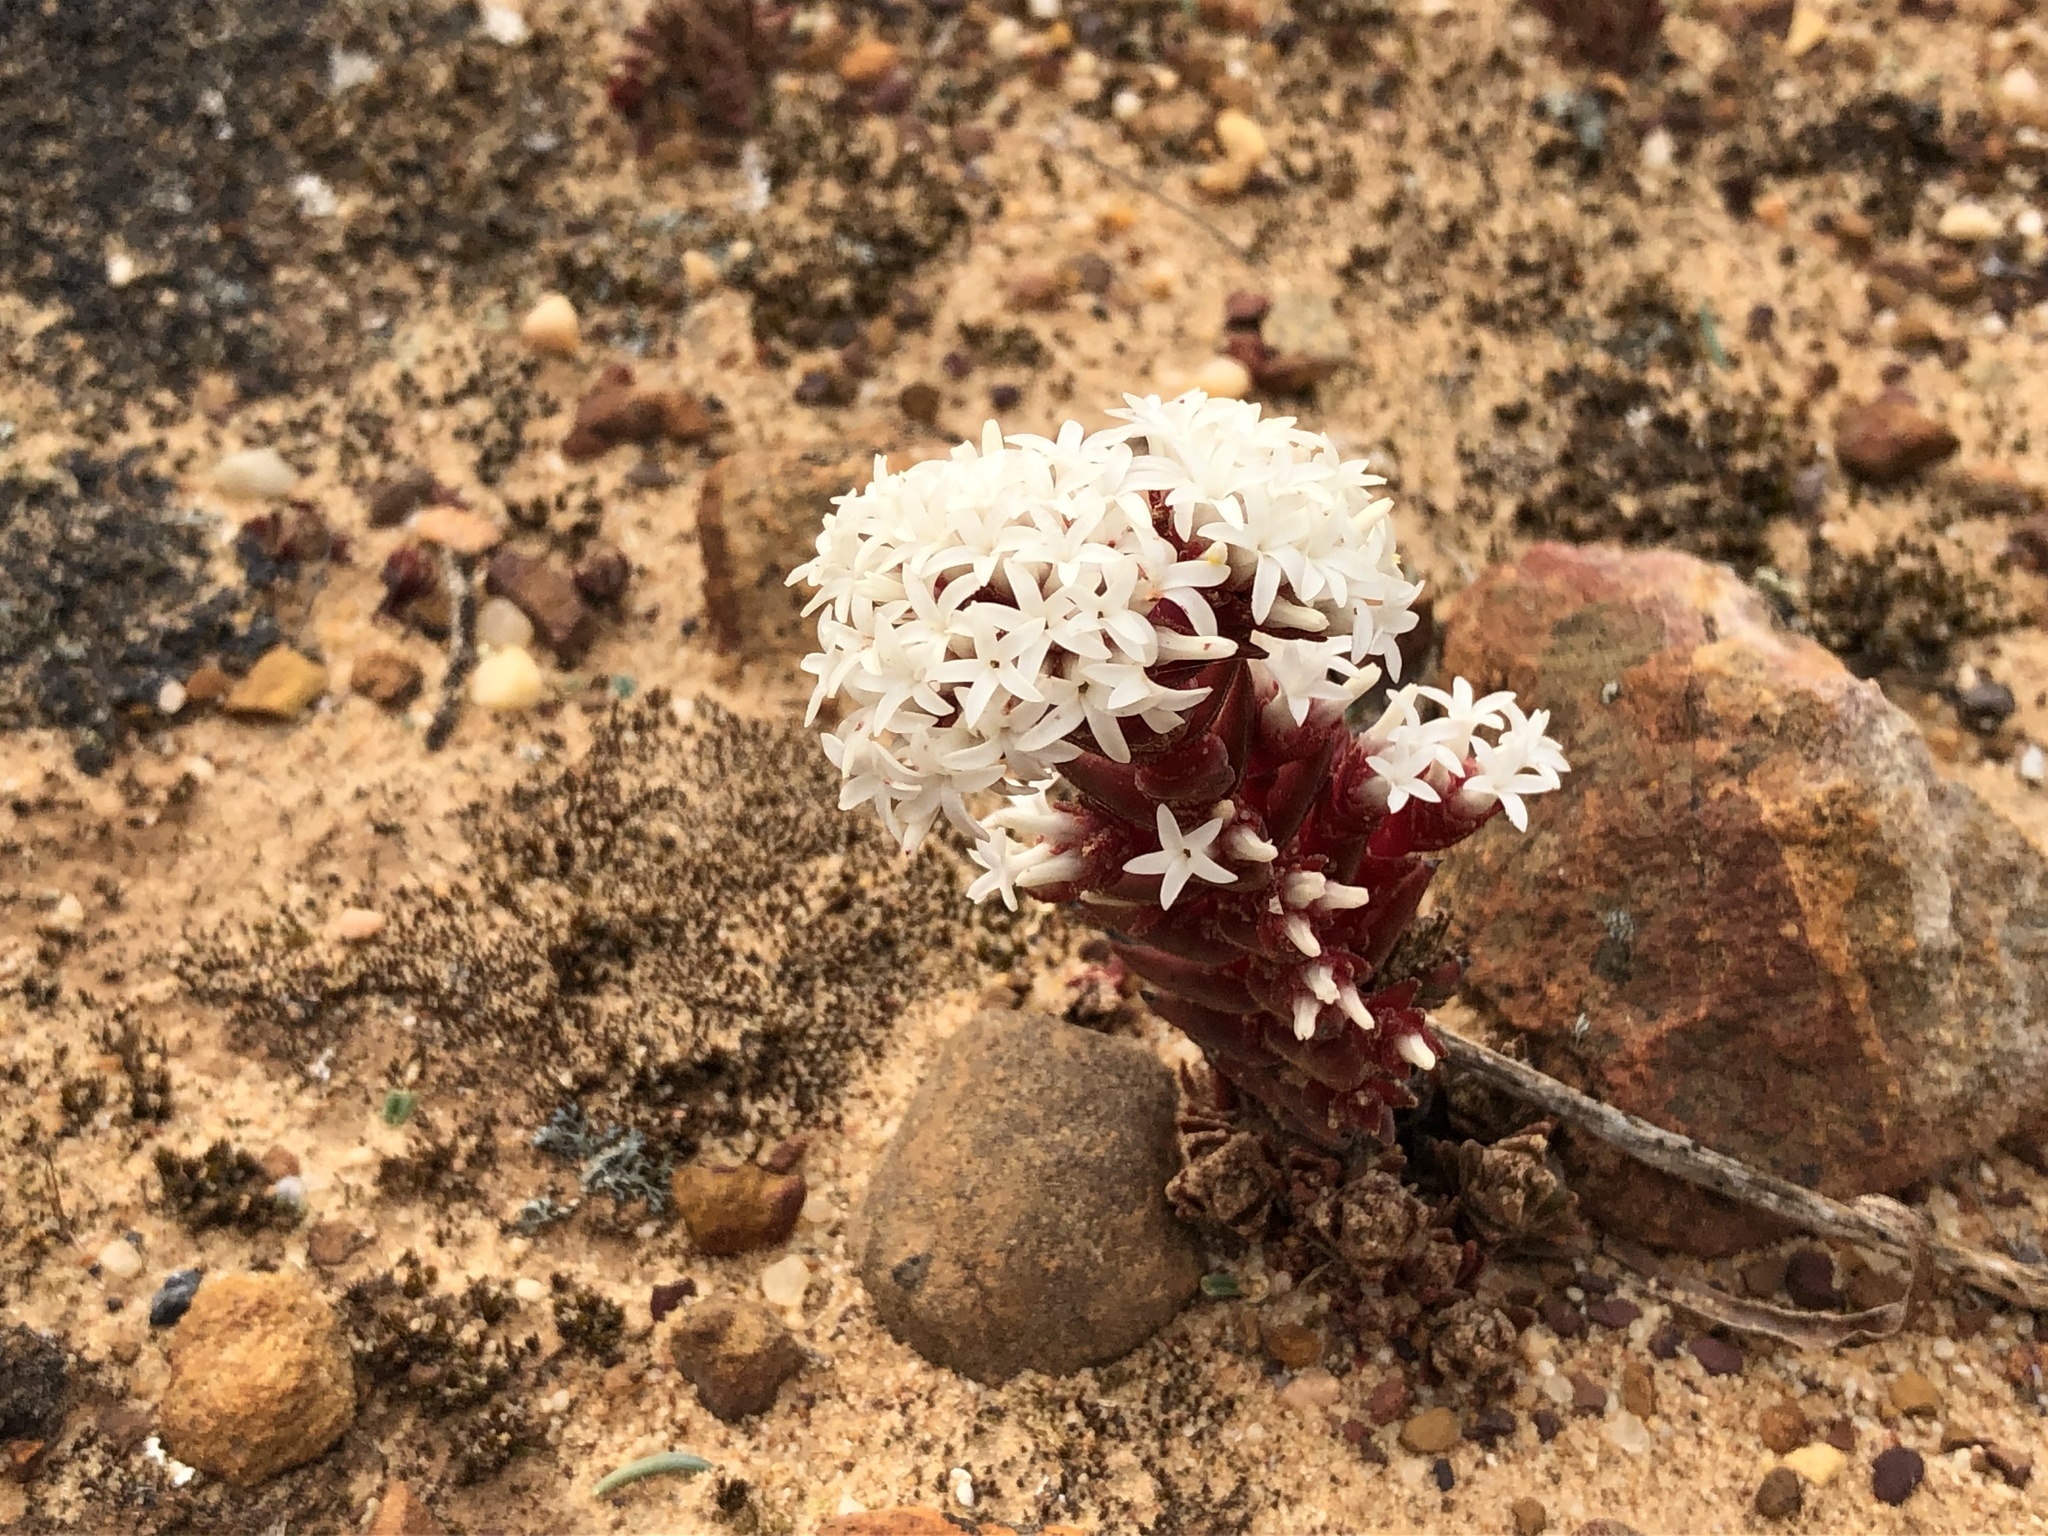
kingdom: Plantae
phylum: Tracheophyta
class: Magnoliopsida
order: Saxifragales
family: Crassulaceae
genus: Crassula
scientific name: Crassula alpestris
